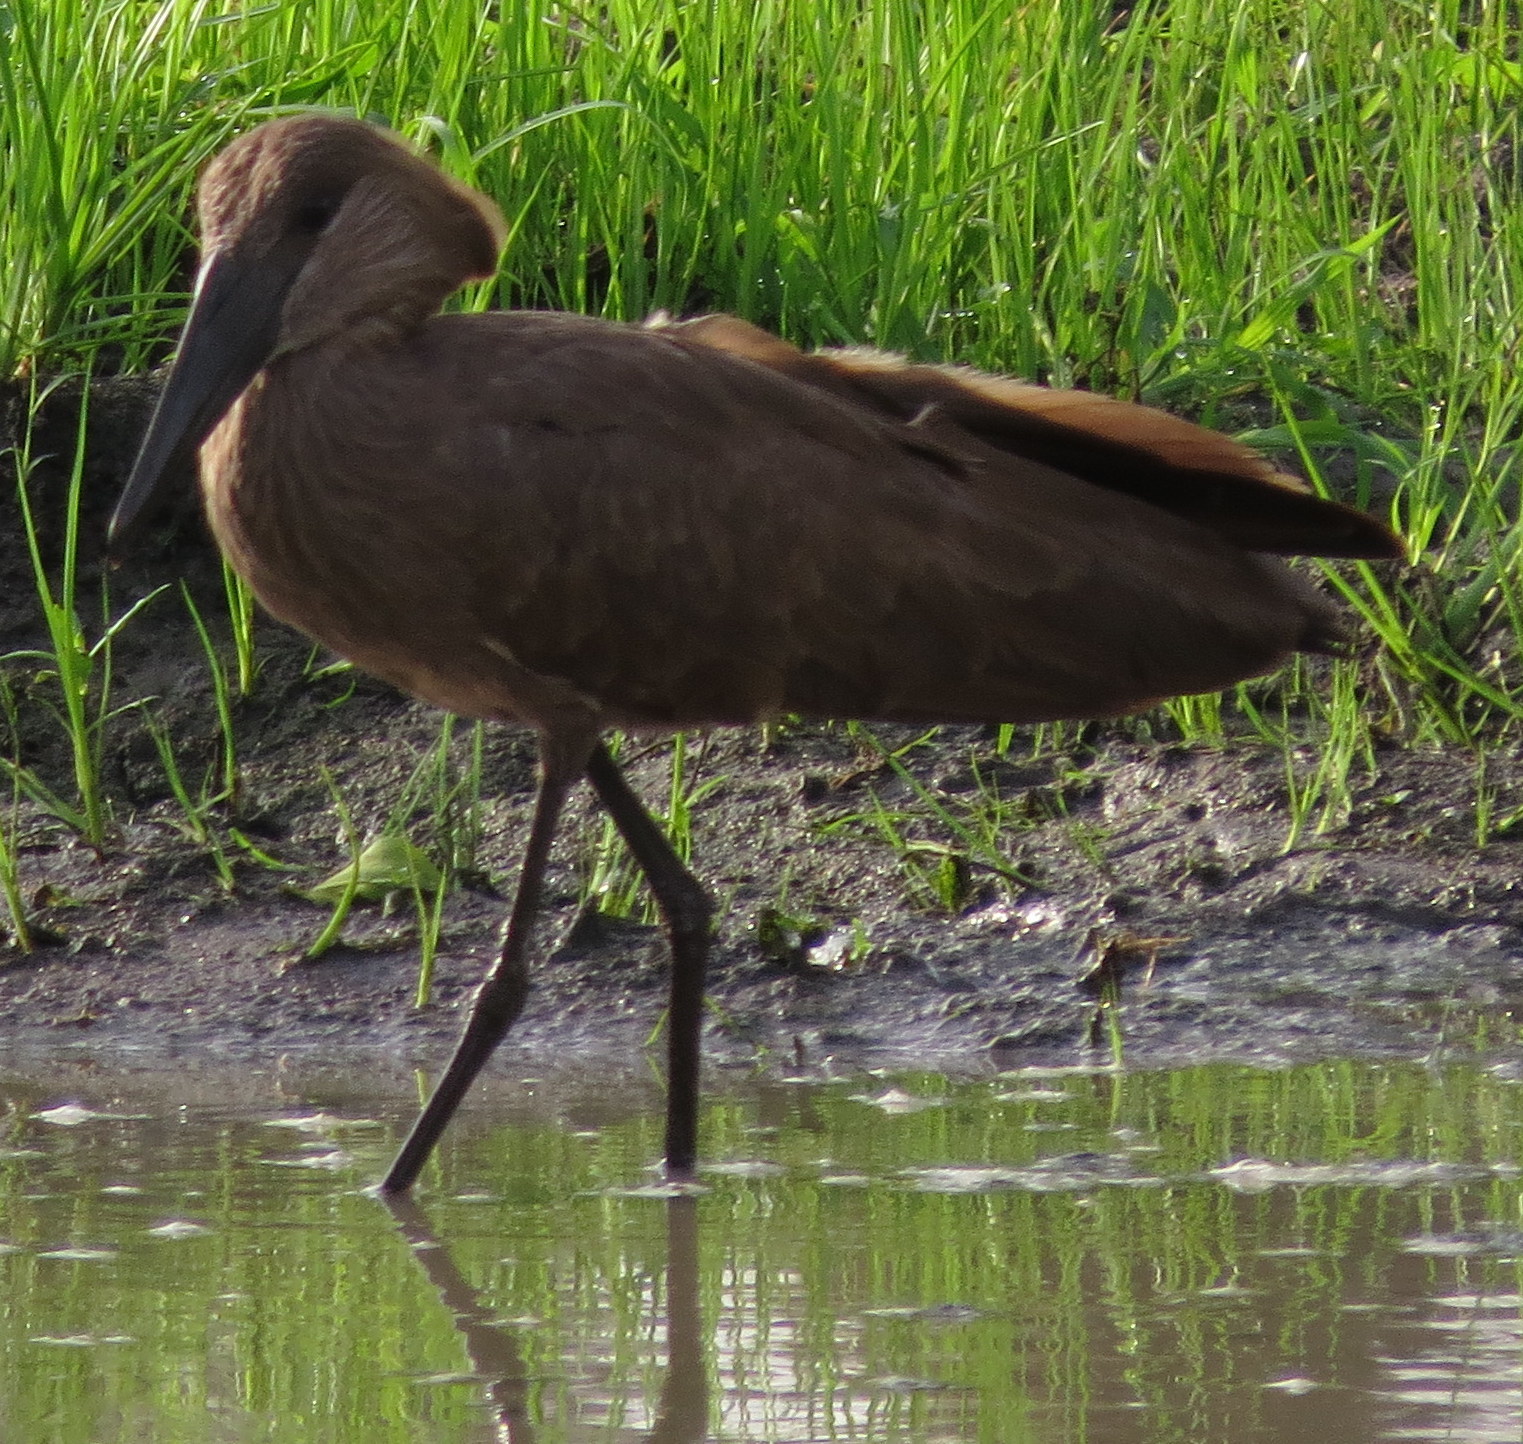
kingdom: Animalia
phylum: Chordata
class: Aves
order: Pelecaniformes
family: Scopidae
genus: Scopus
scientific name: Scopus umbretta
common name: Hamerkop
